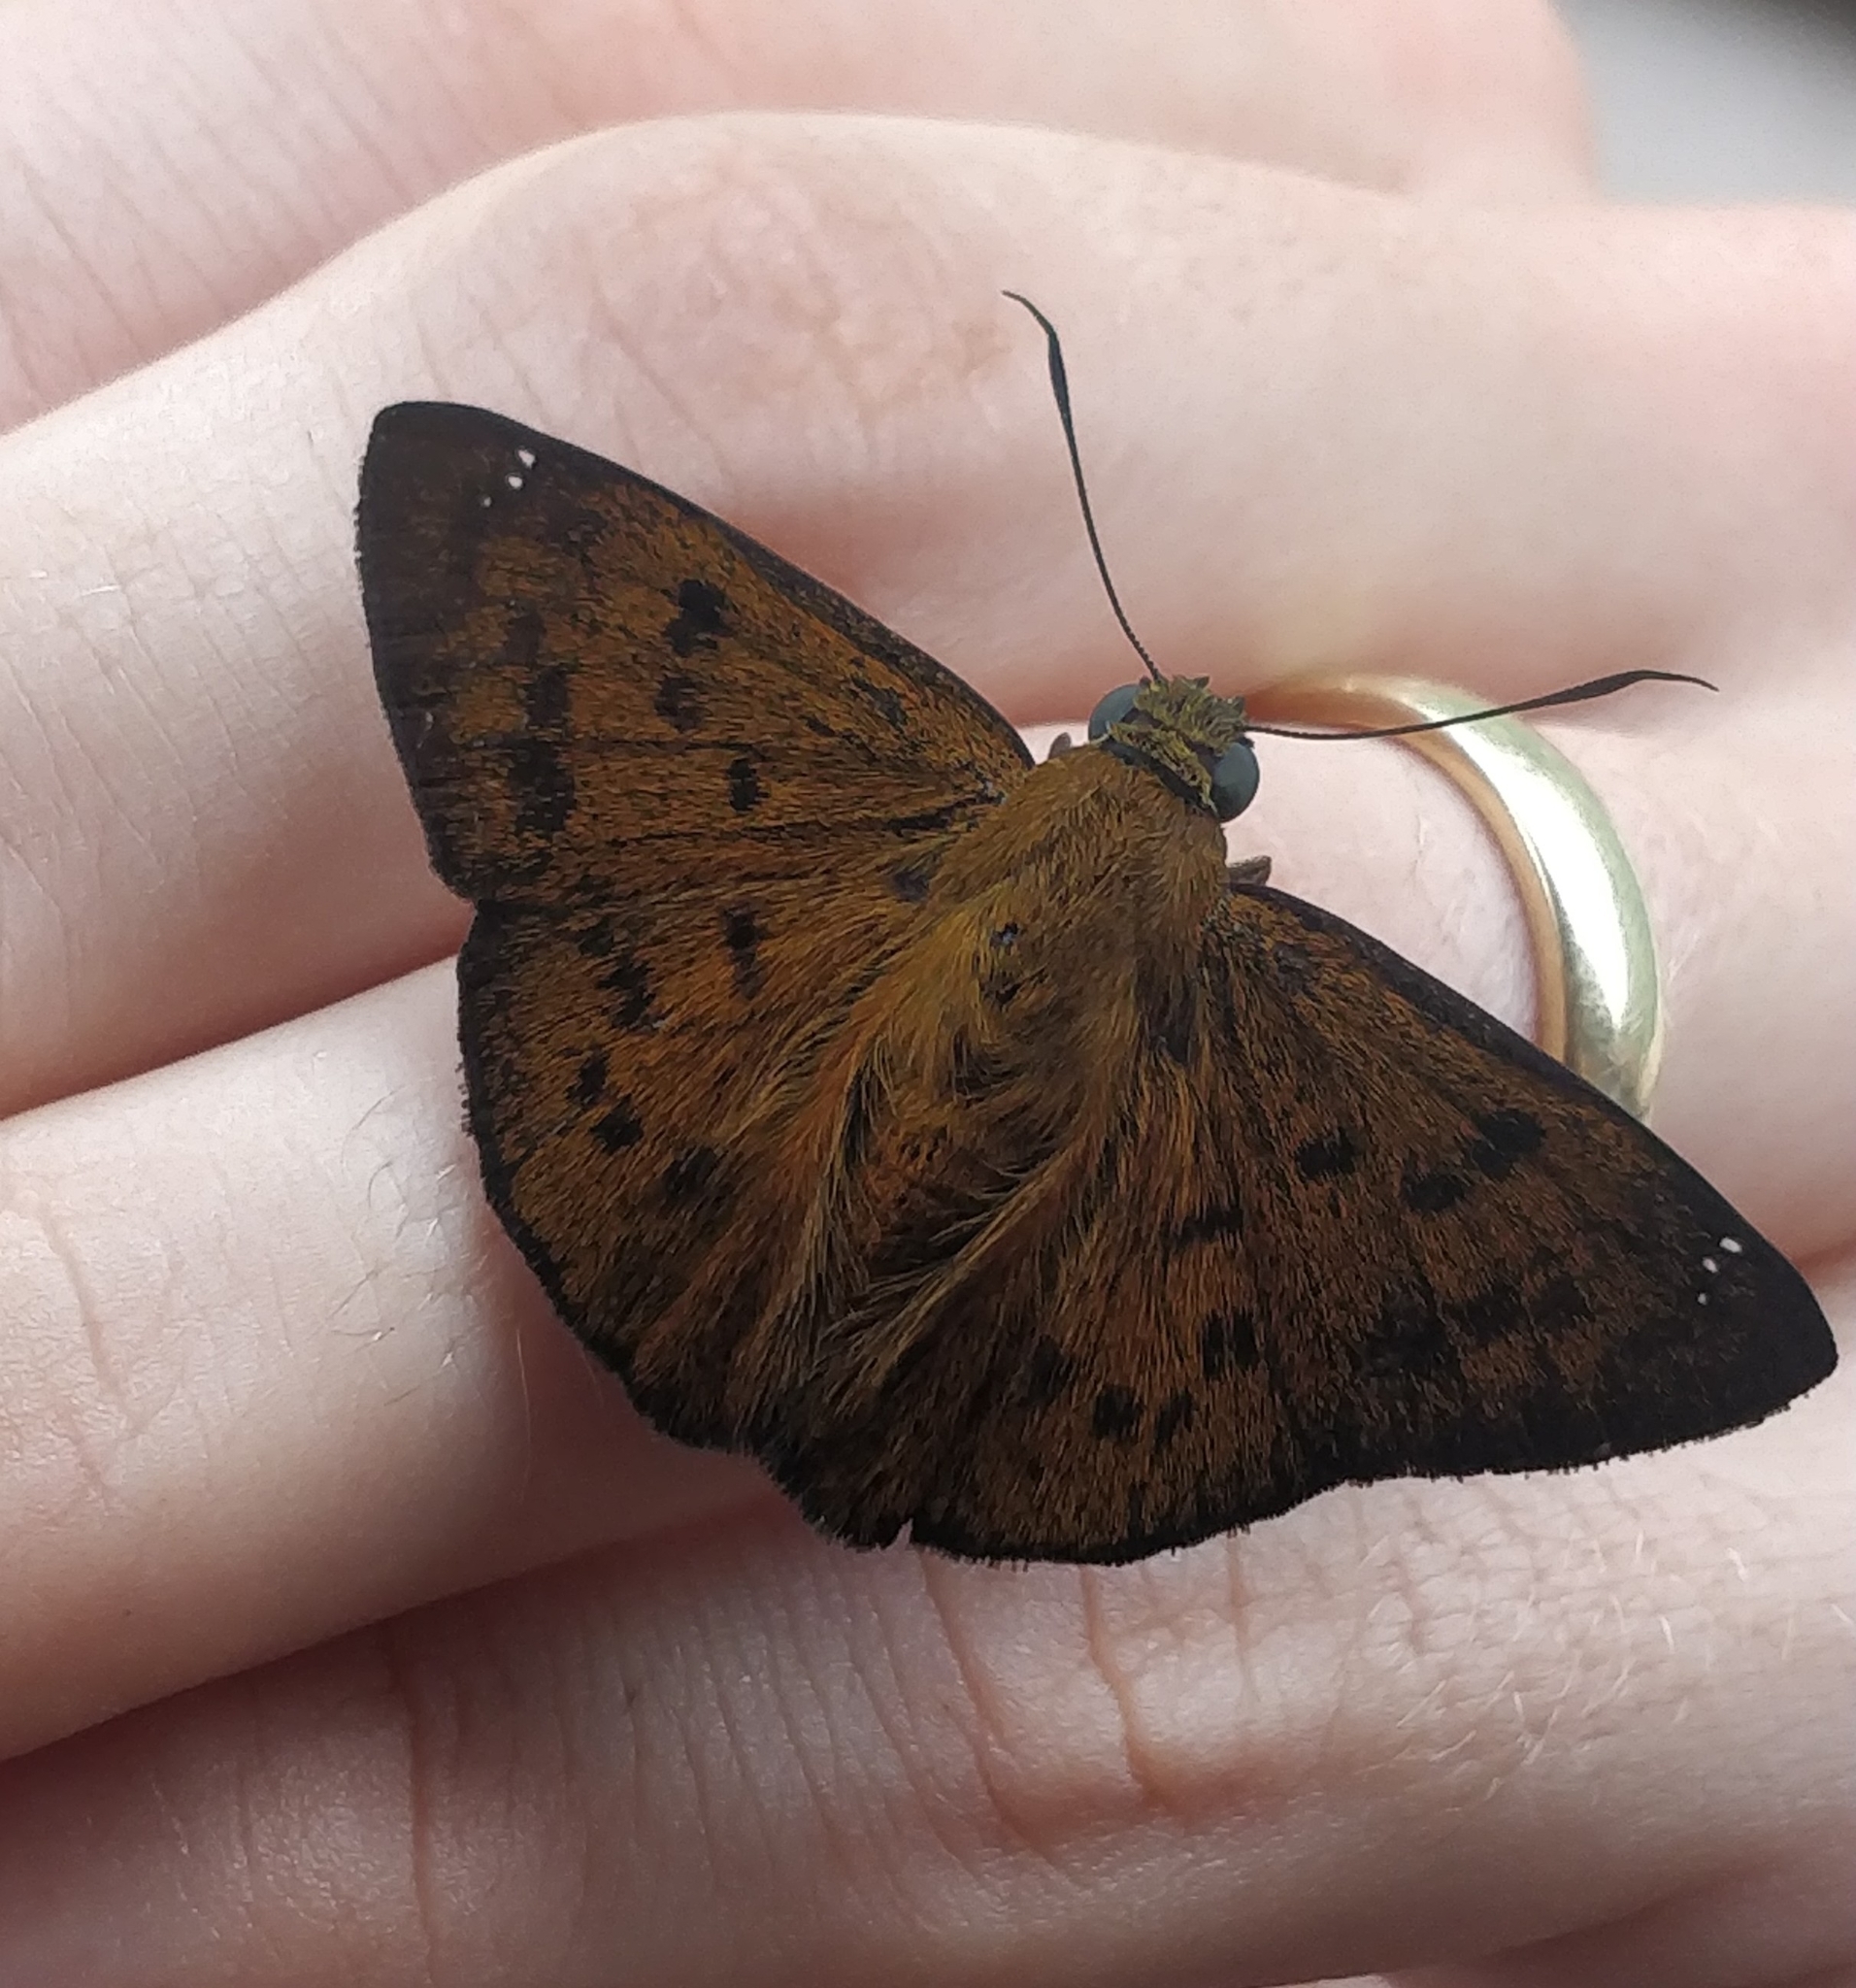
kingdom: Animalia
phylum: Arthropoda
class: Insecta
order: Lepidoptera
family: Hesperiidae
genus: Telemiades
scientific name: Telemiades epicalus
